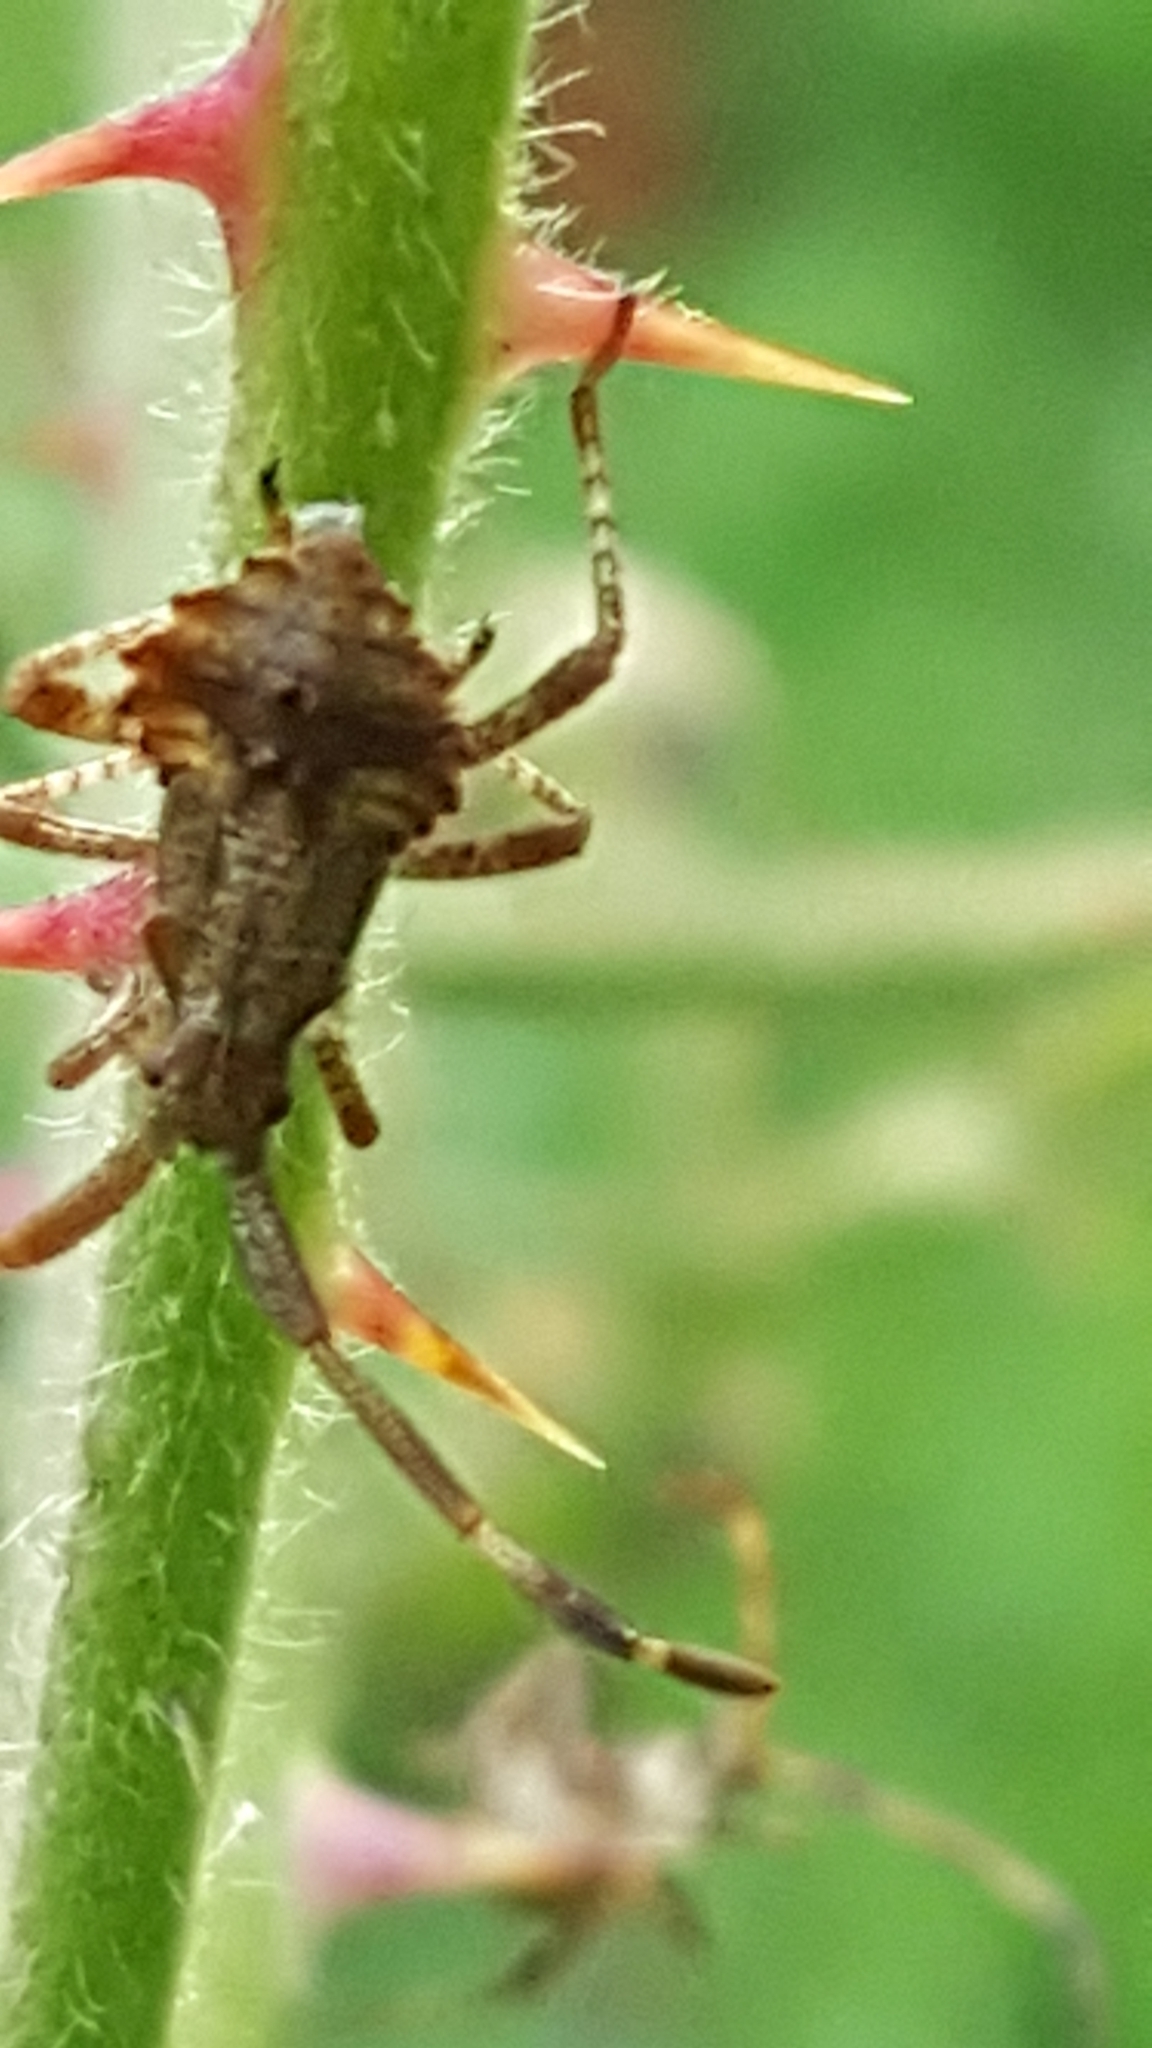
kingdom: Animalia
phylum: Arthropoda
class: Insecta
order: Hemiptera
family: Coreidae
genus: Syromastus
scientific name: Syromastus rhombeus
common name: Rhombic leatherbug
